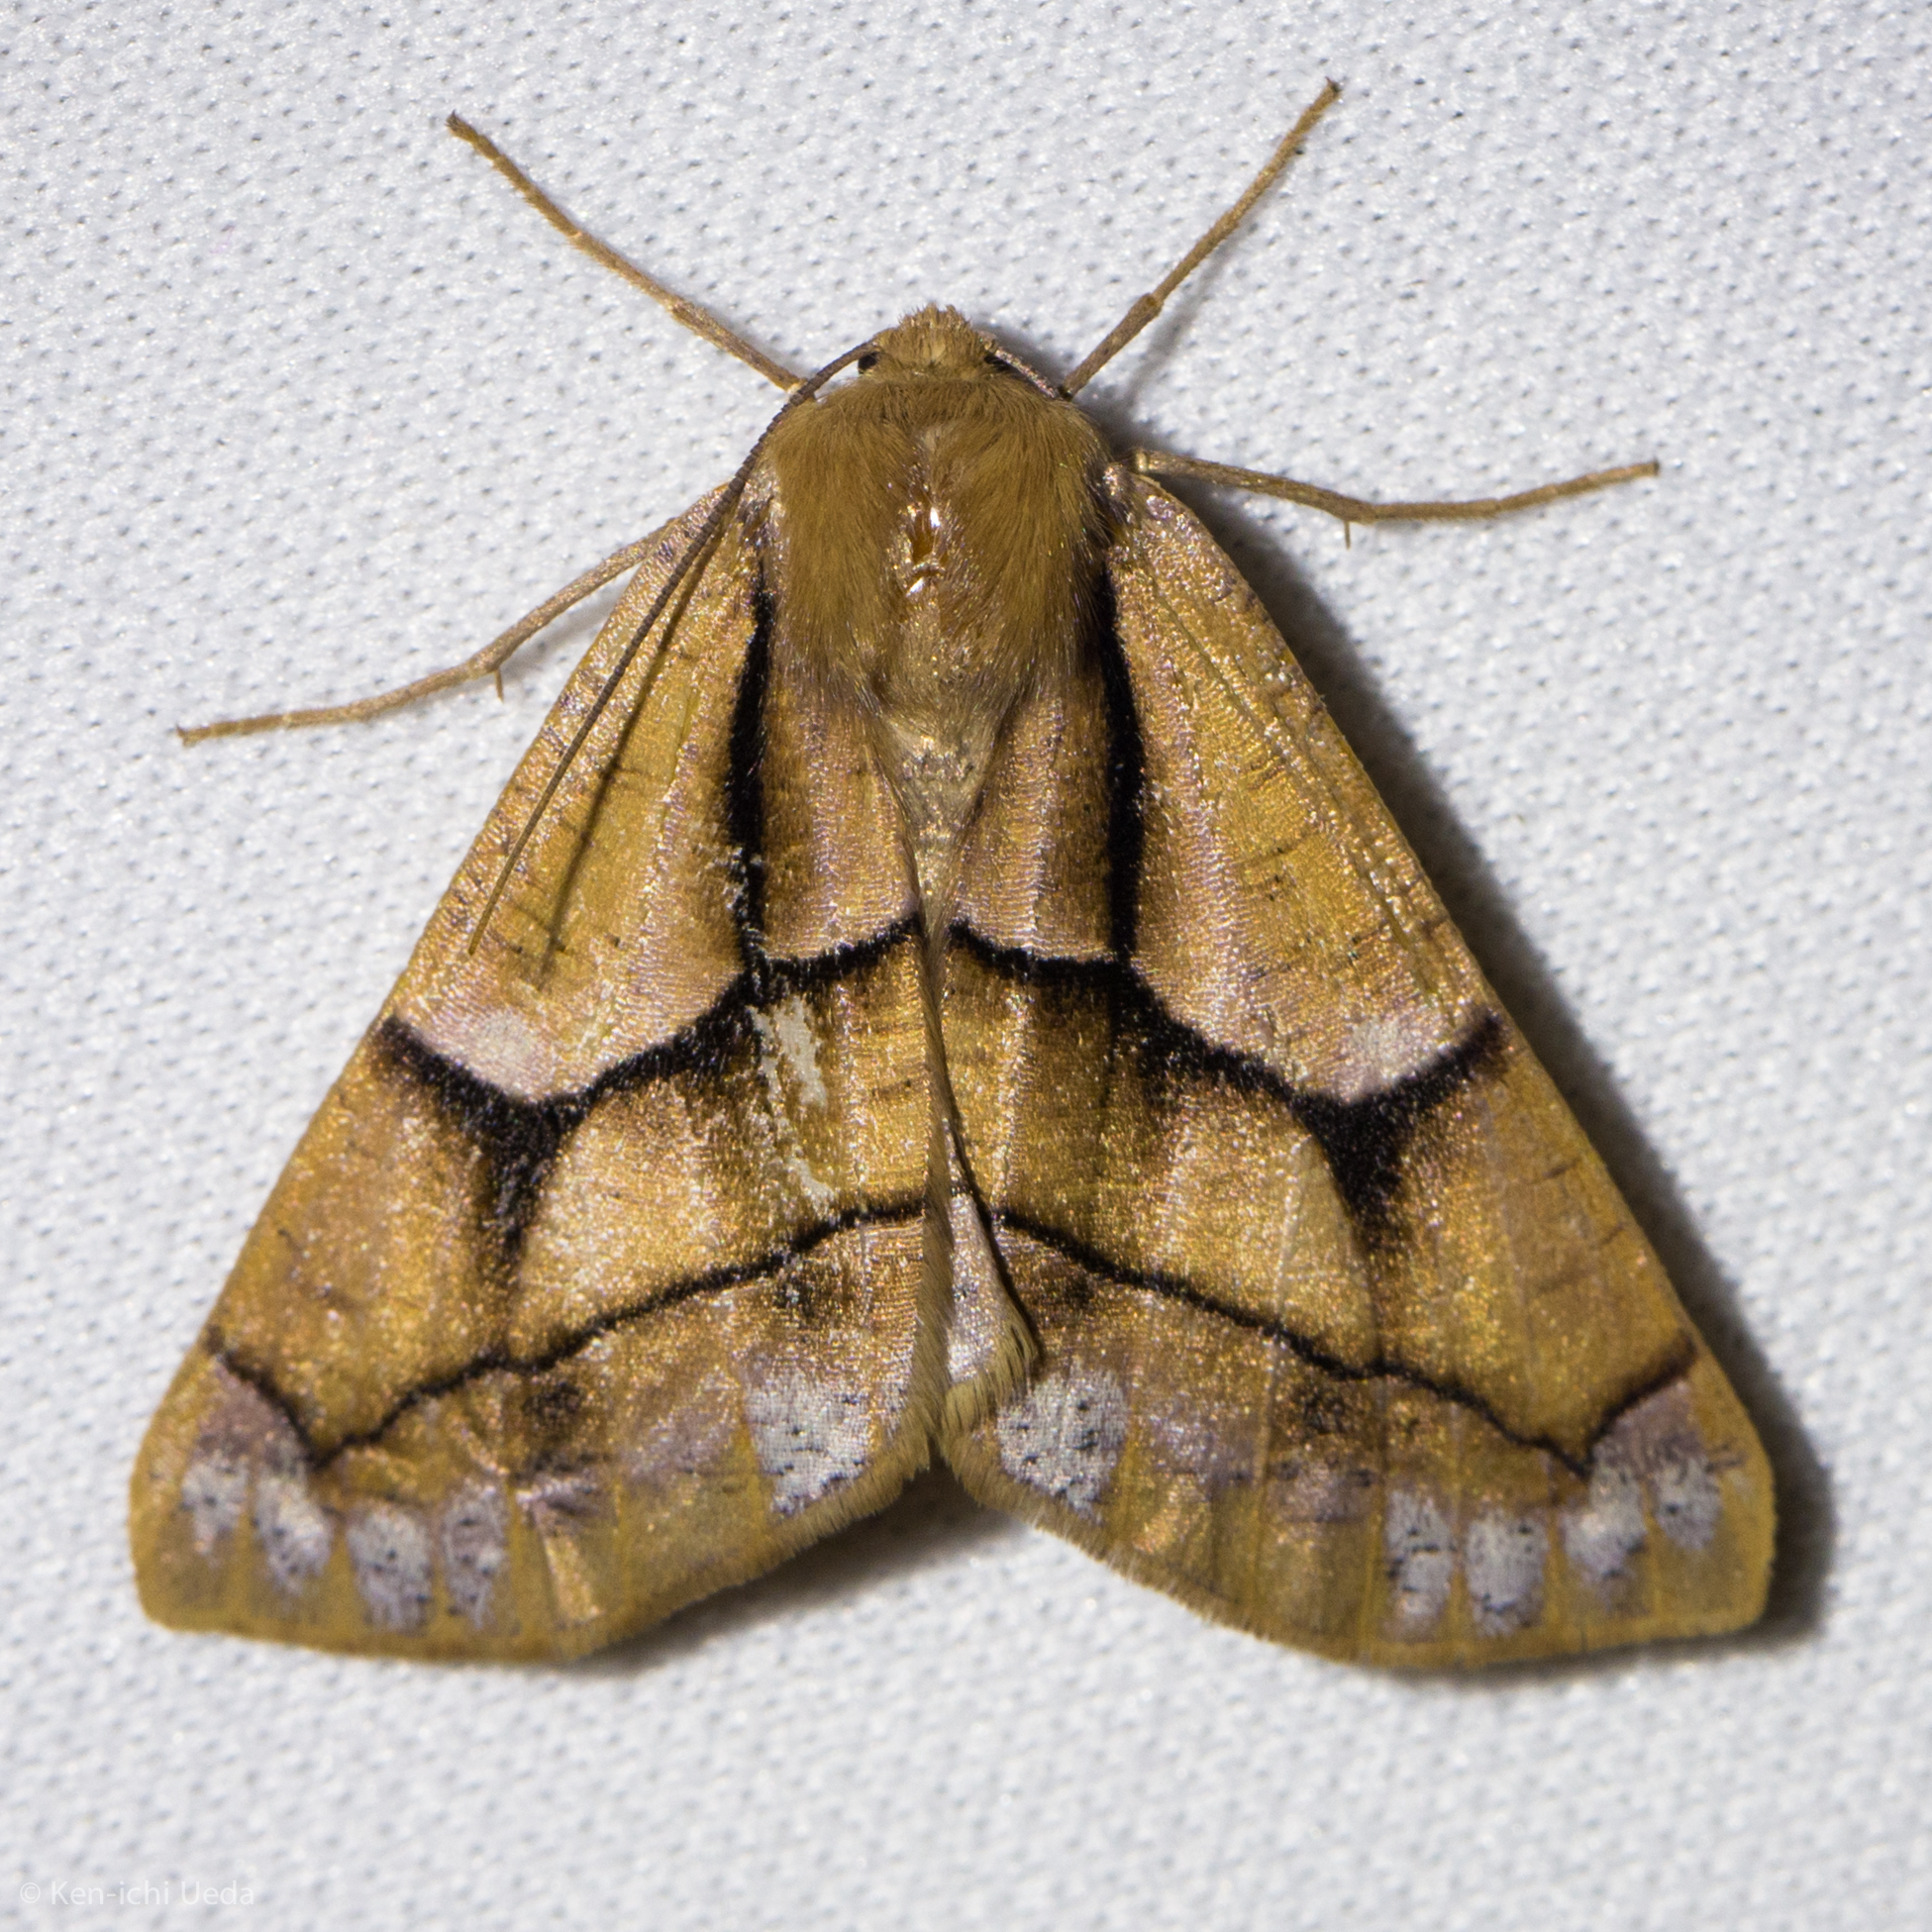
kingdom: Animalia
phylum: Arthropoda
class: Insecta
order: Lepidoptera
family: Geometridae
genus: Snowia
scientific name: Snowia montanaria
